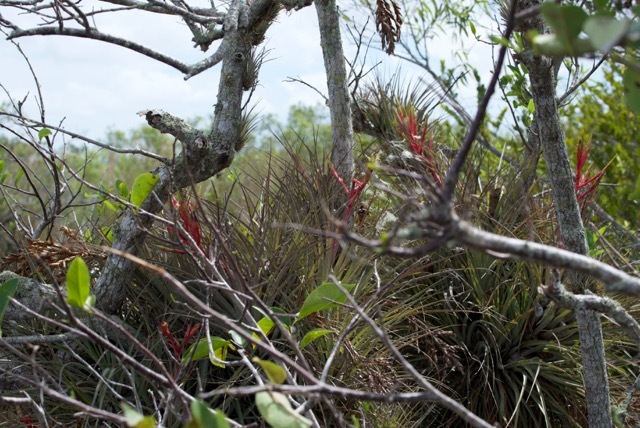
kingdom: Plantae
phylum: Tracheophyta
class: Liliopsida
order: Poales
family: Bromeliaceae
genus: Tillandsia
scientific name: Tillandsia fasciculata
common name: Giant airplant
